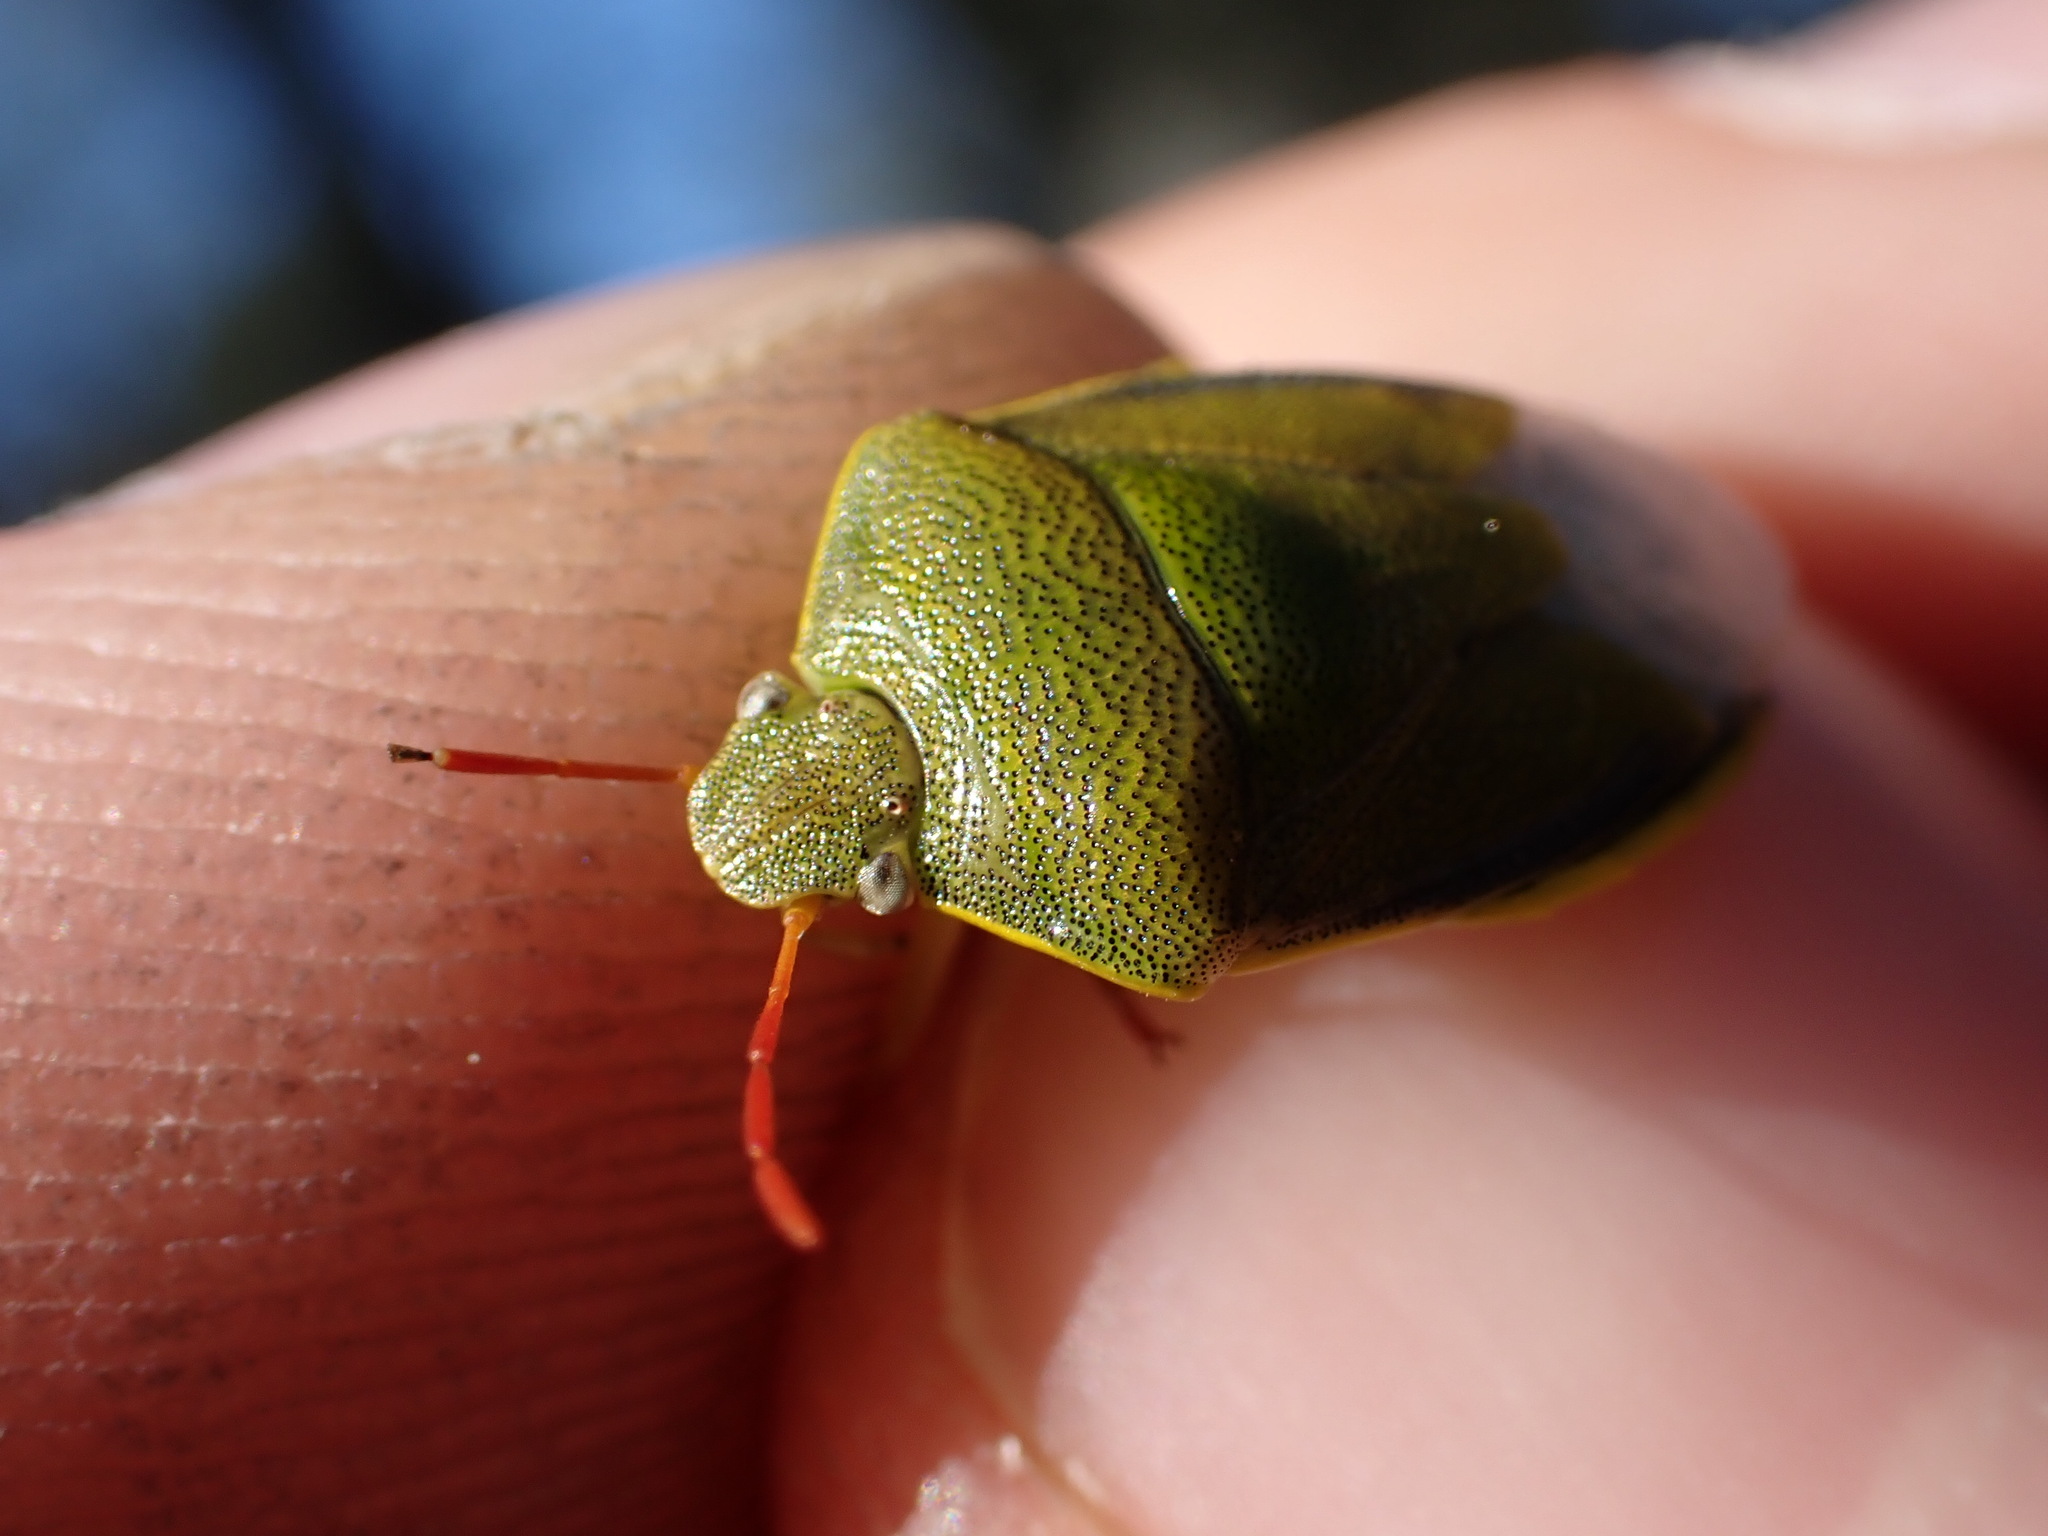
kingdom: Animalia
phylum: Arthropoda
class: Insecta
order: Hemiptera
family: Pentatomidae
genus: Piezodorus
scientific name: Piezodorus lituratus
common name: Stink bug
